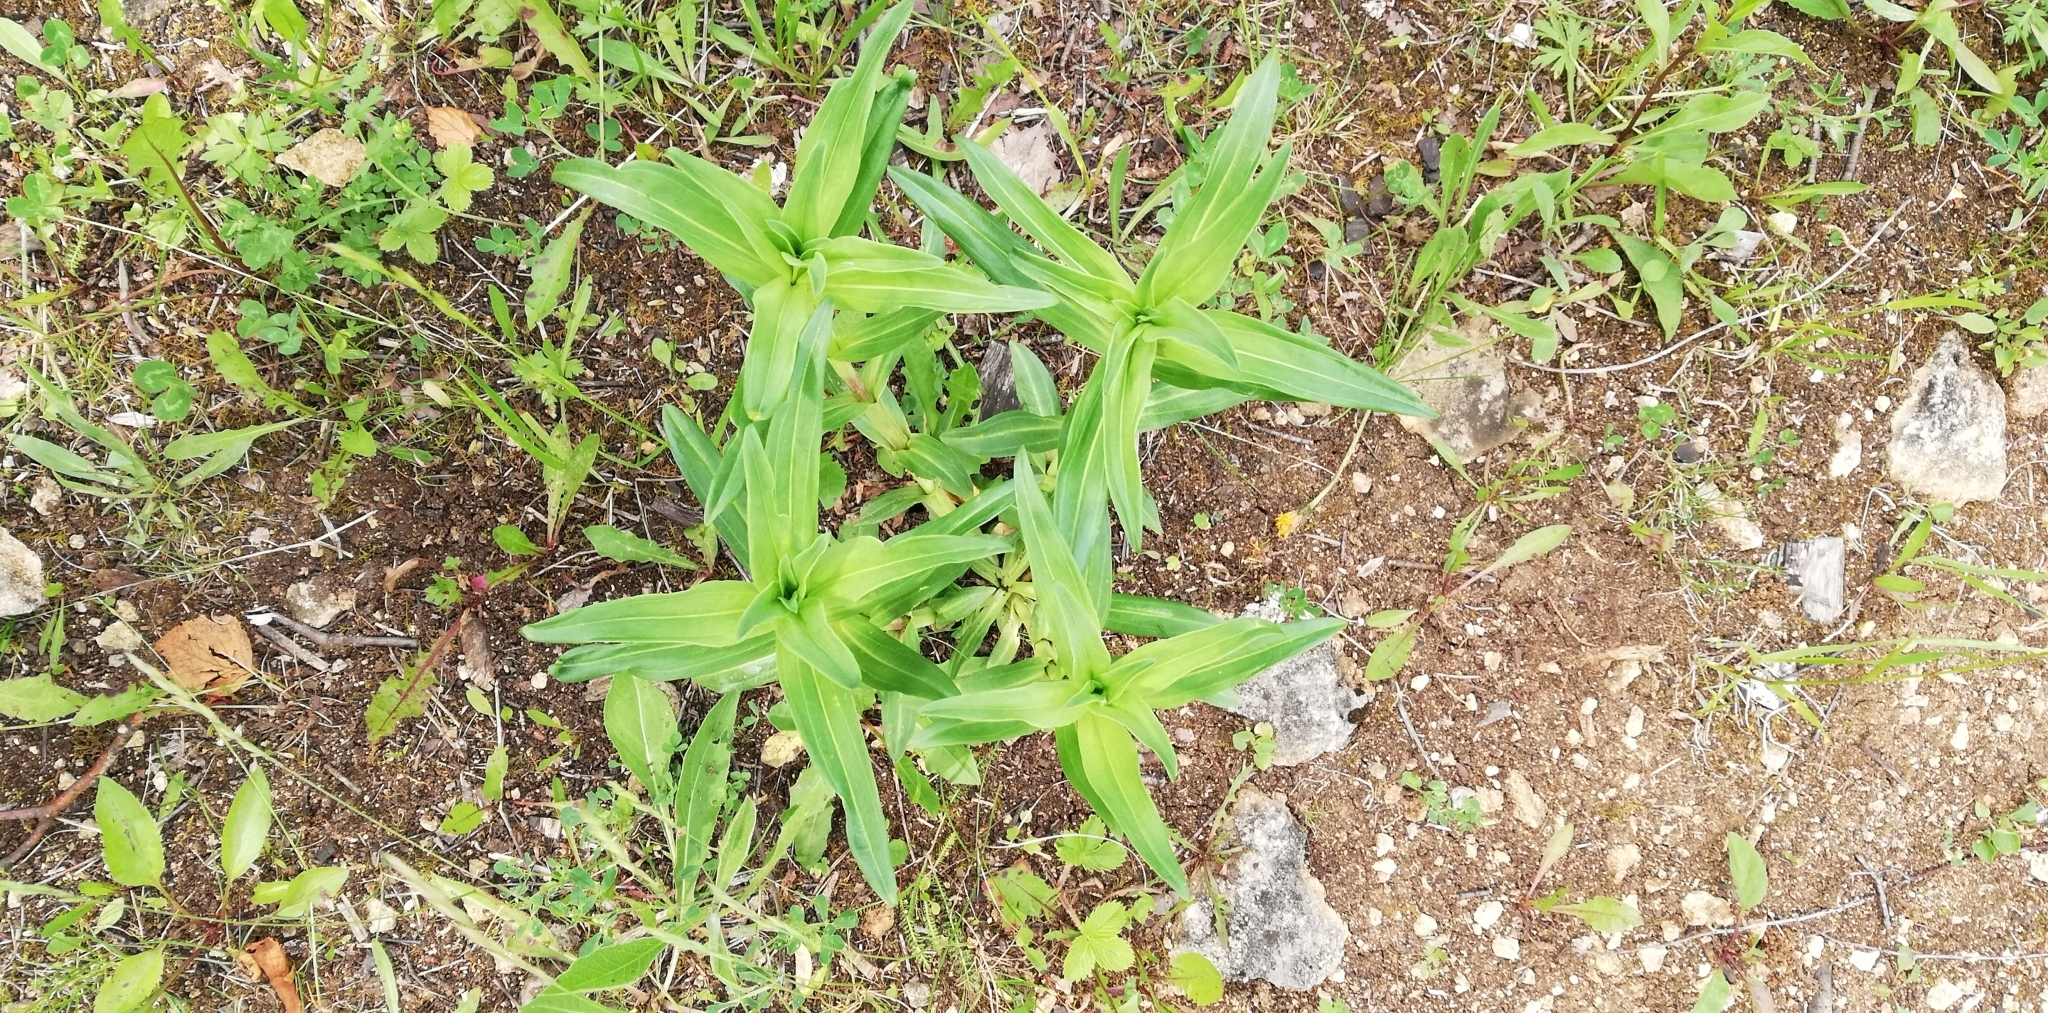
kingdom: Plantae
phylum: Tracheophyta
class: Magnoliopsida
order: Gentianales
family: Gentianaceae
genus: Gentiana
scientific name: Gentiana cruciata
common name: Cross gentian
